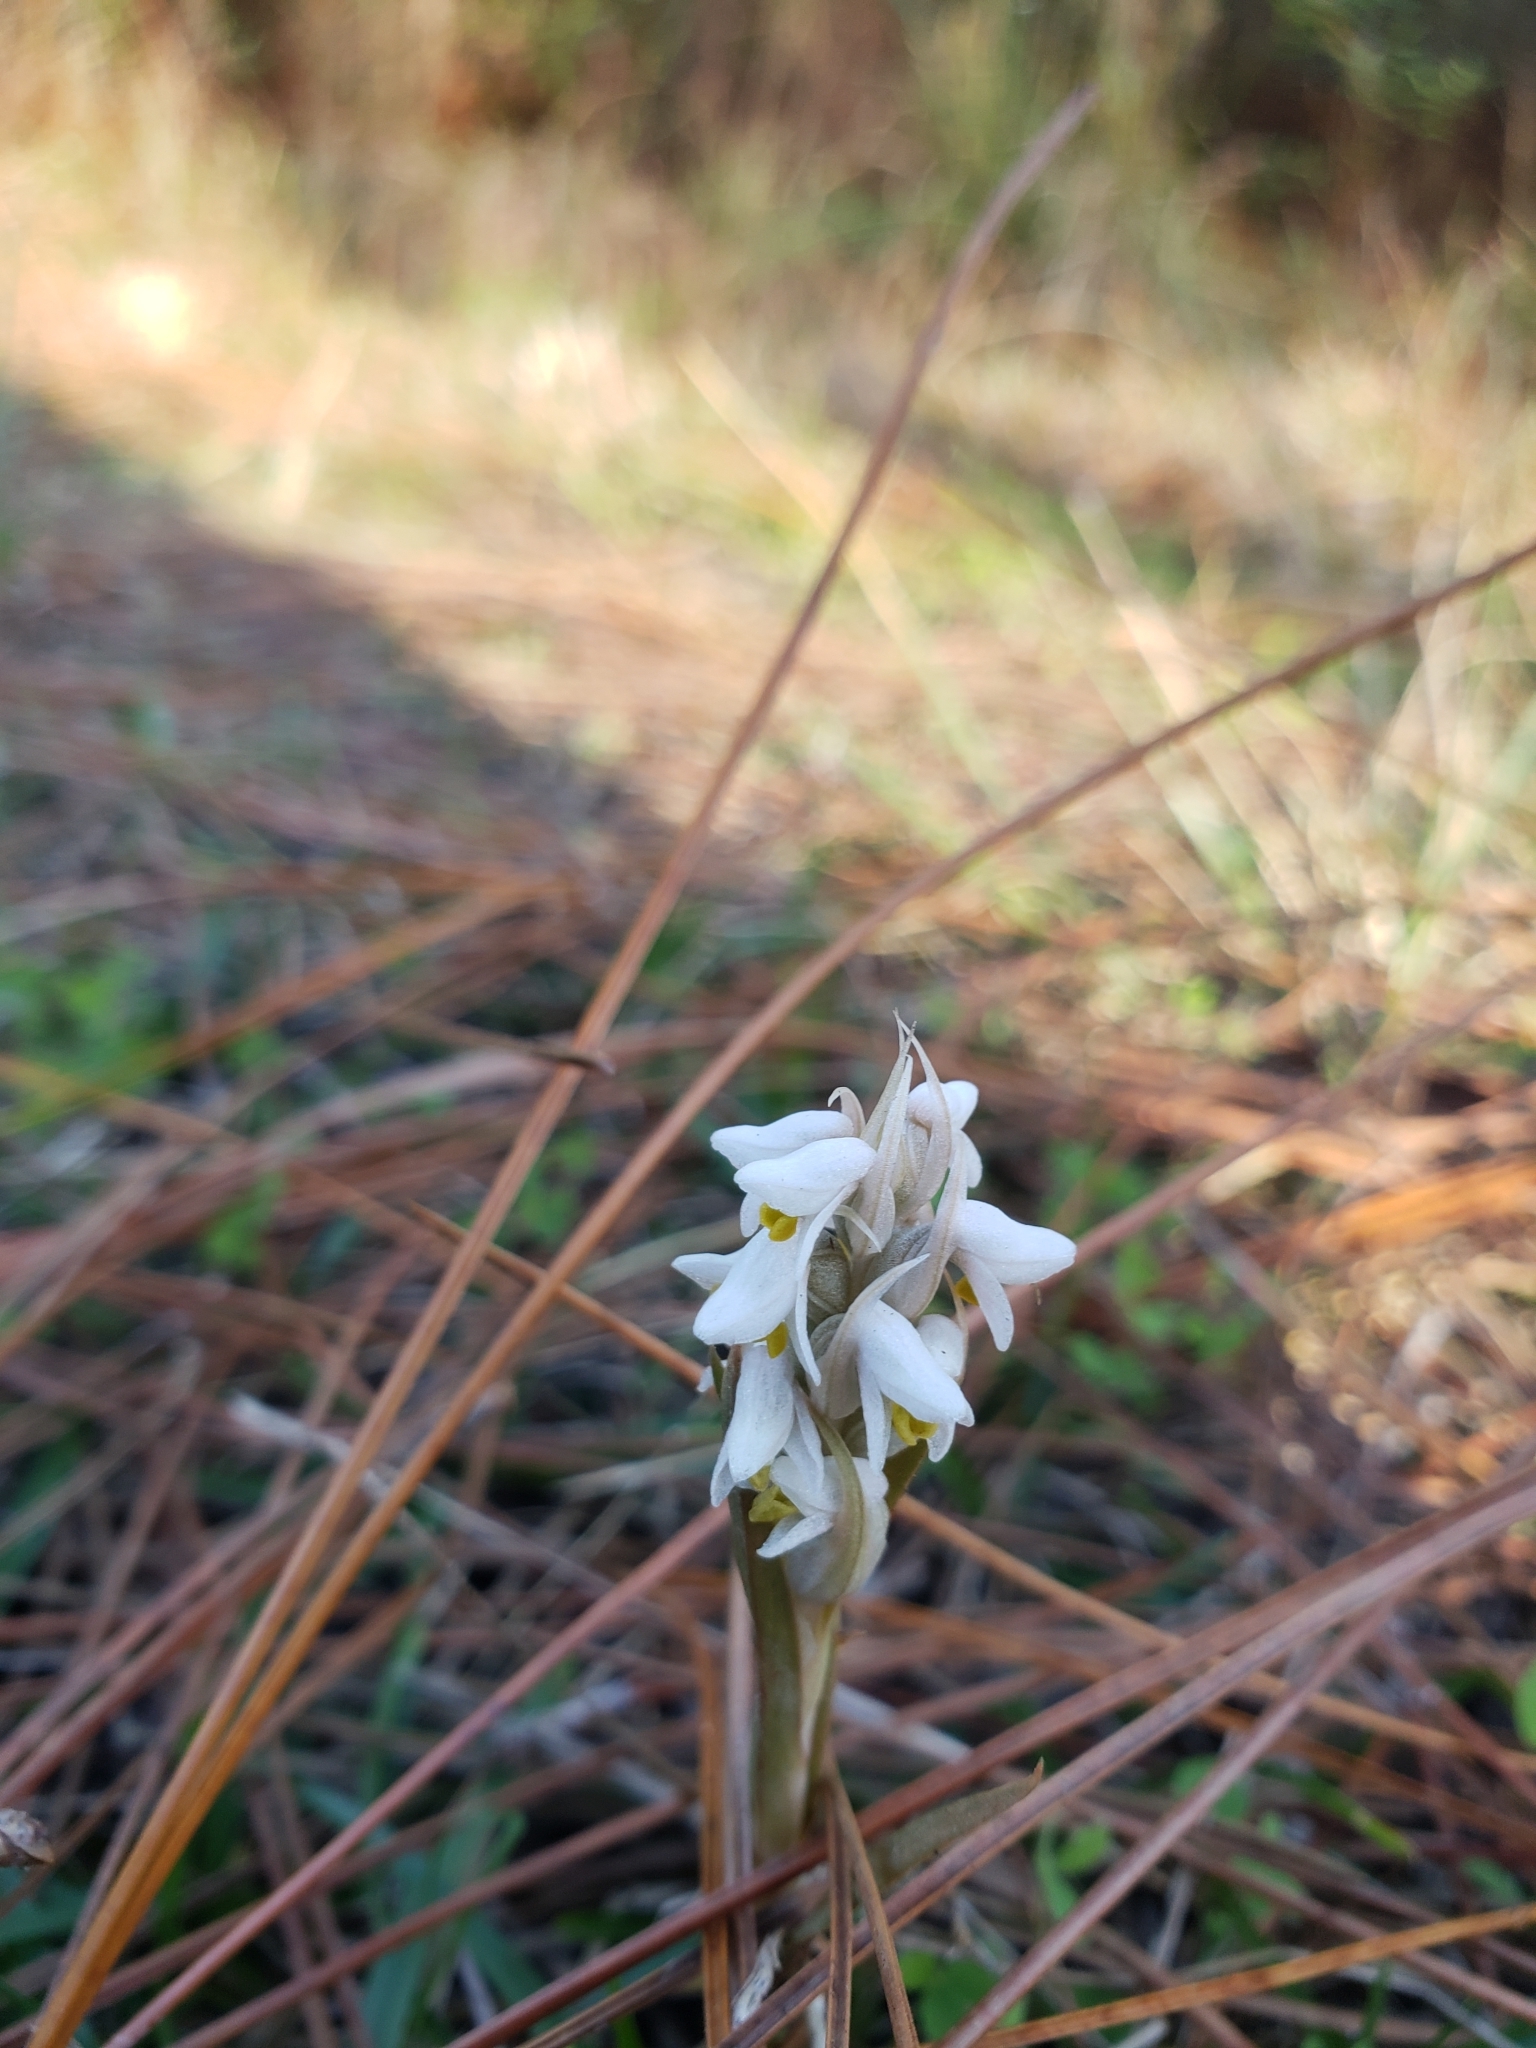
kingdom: Plantae
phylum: Tracheophyta
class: Liliopsida
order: Asparagales
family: Orchidaceae
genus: Zeuxine
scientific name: Zeuxine strateumatica
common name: Soldier's orchid
